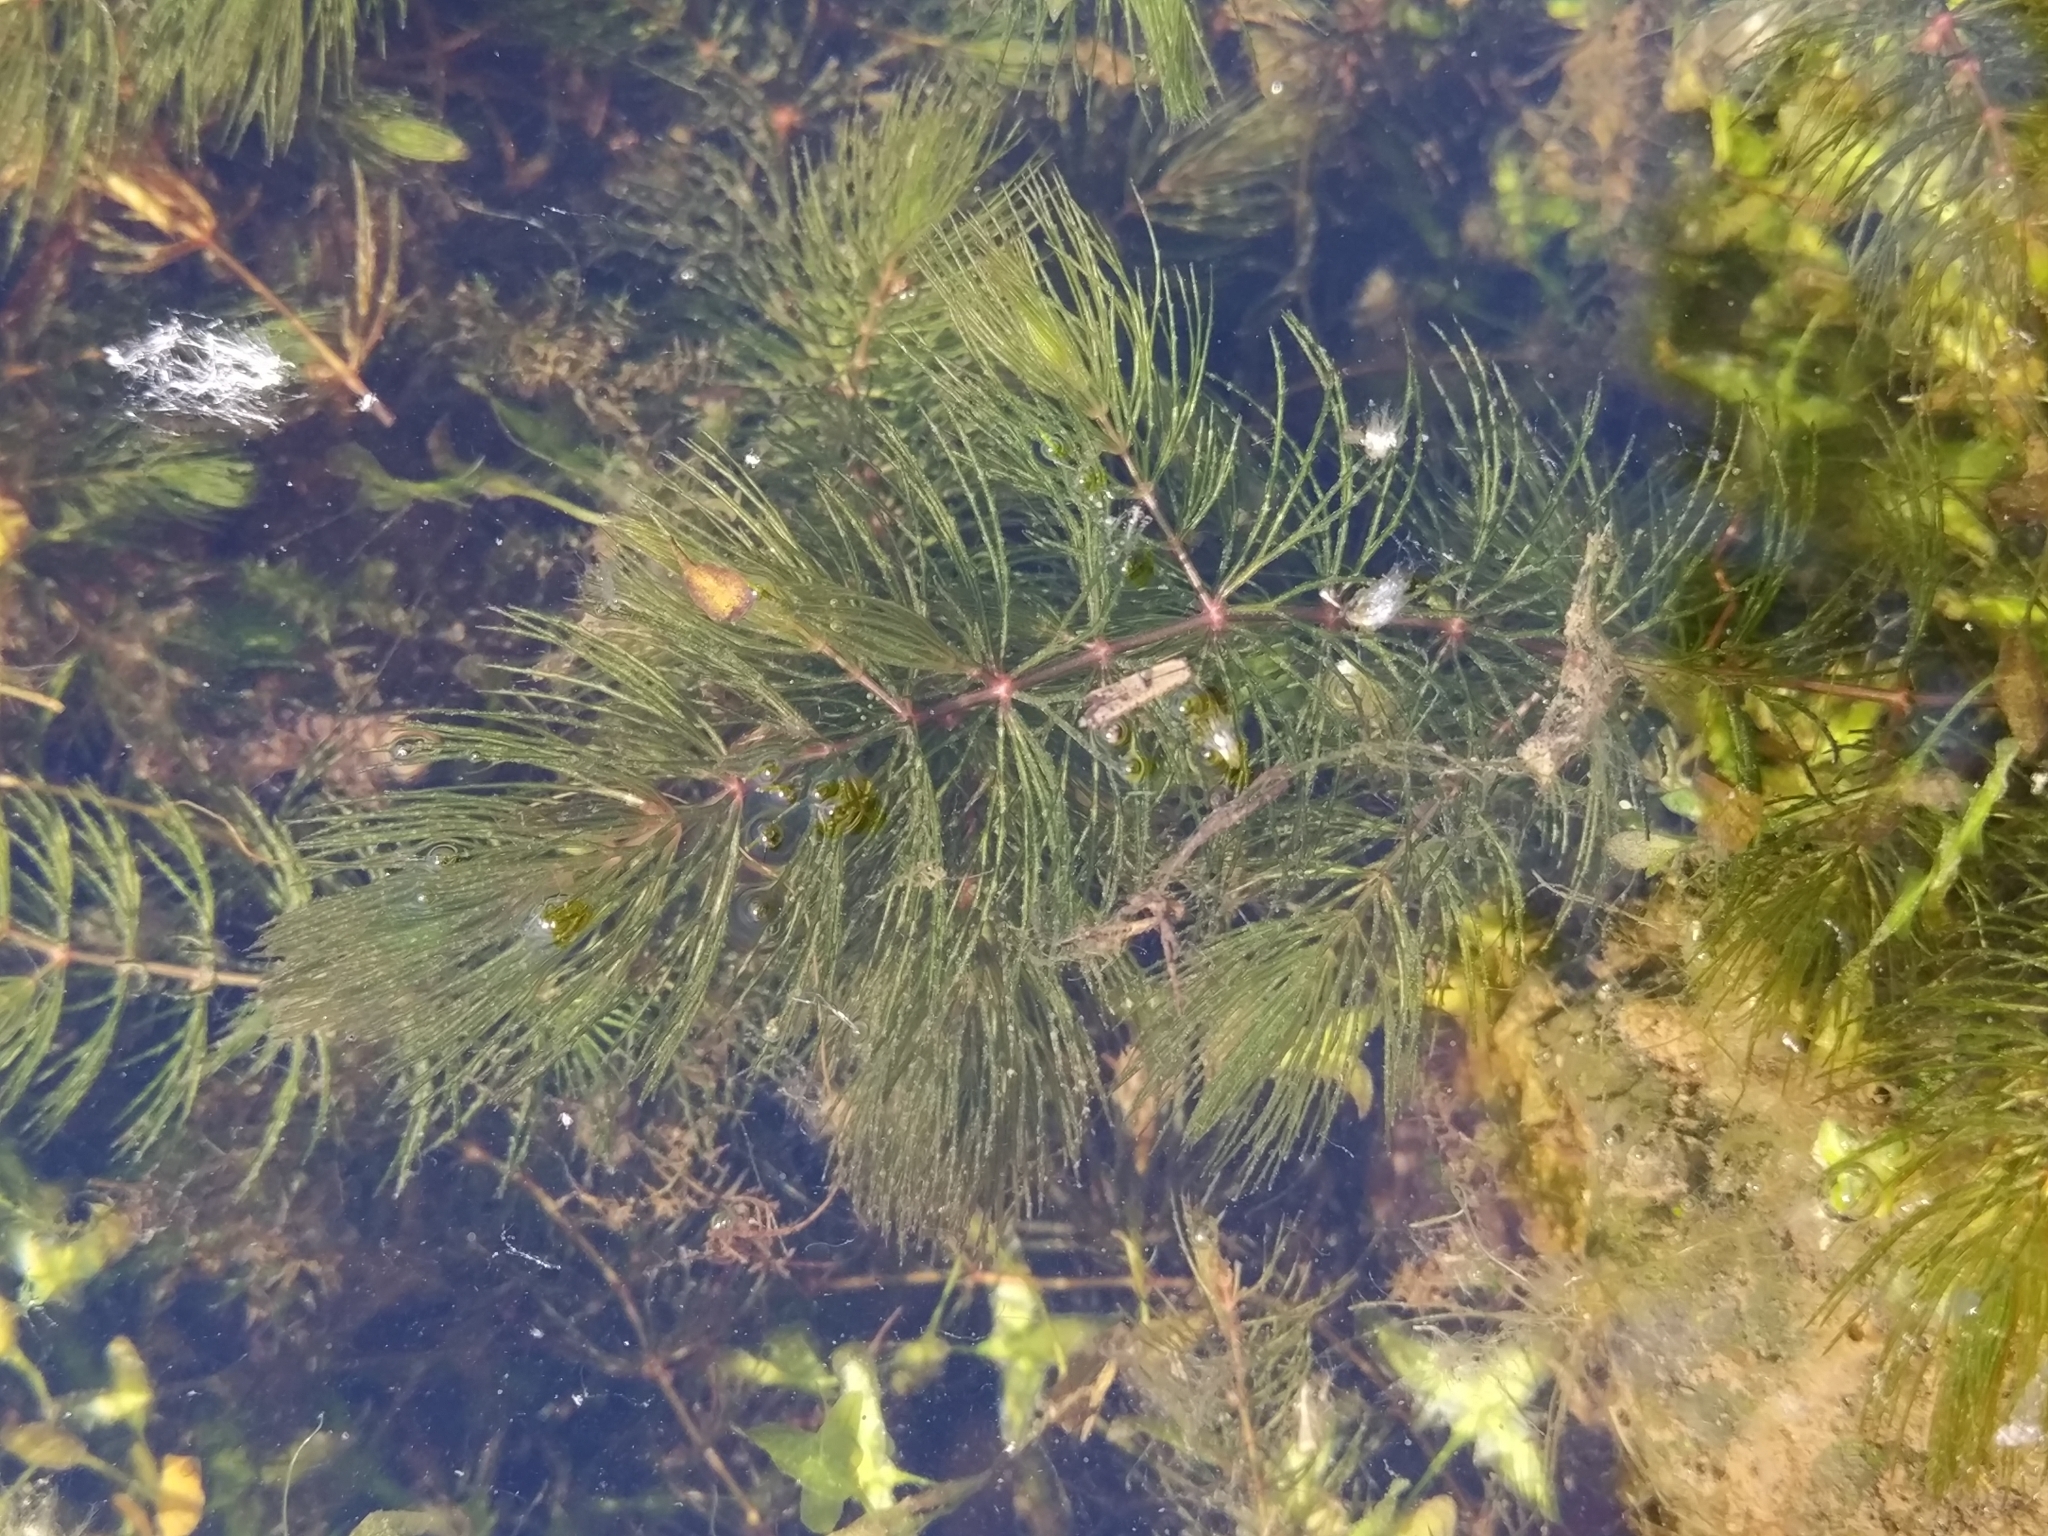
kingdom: Plantae
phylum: Tracheophyta
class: Magnoliopsida
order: Ceratophyllales
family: Ceratophyllaceae
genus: Ceratophyllum
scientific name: Ceratophyllum demersum
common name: Rigid hornwort
